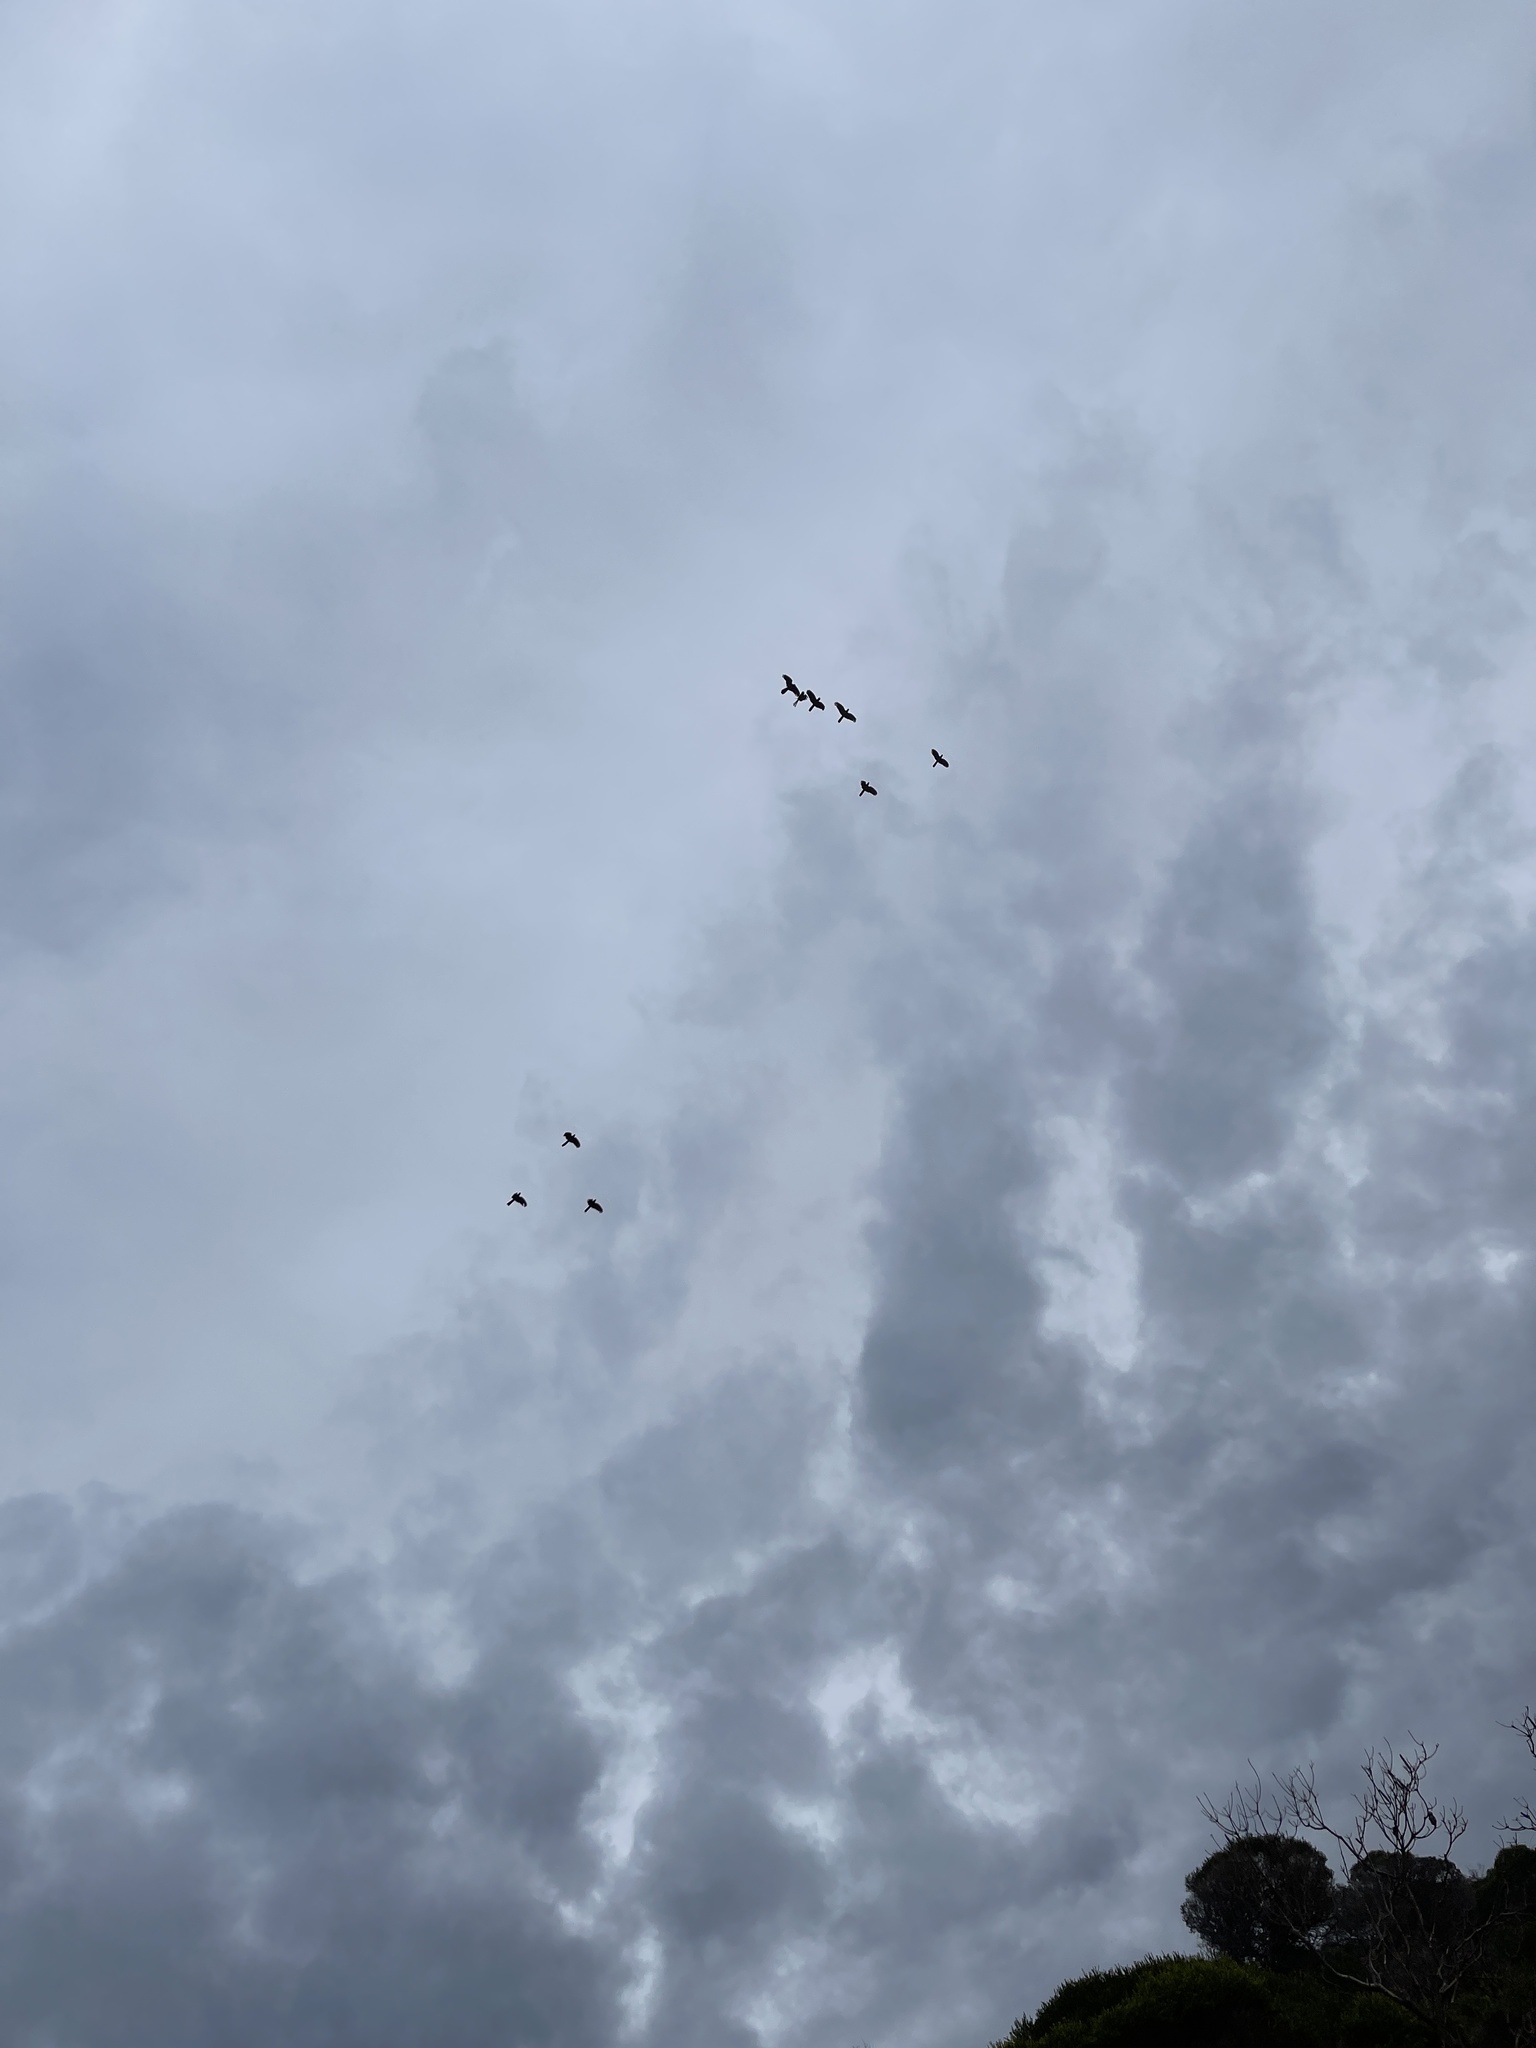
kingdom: Animalia
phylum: Chordata
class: Aves
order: Psittaciformes
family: Cacatuidae
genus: Zanda
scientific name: Zanda funerea
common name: Yellow-tailed black-cockatoo
